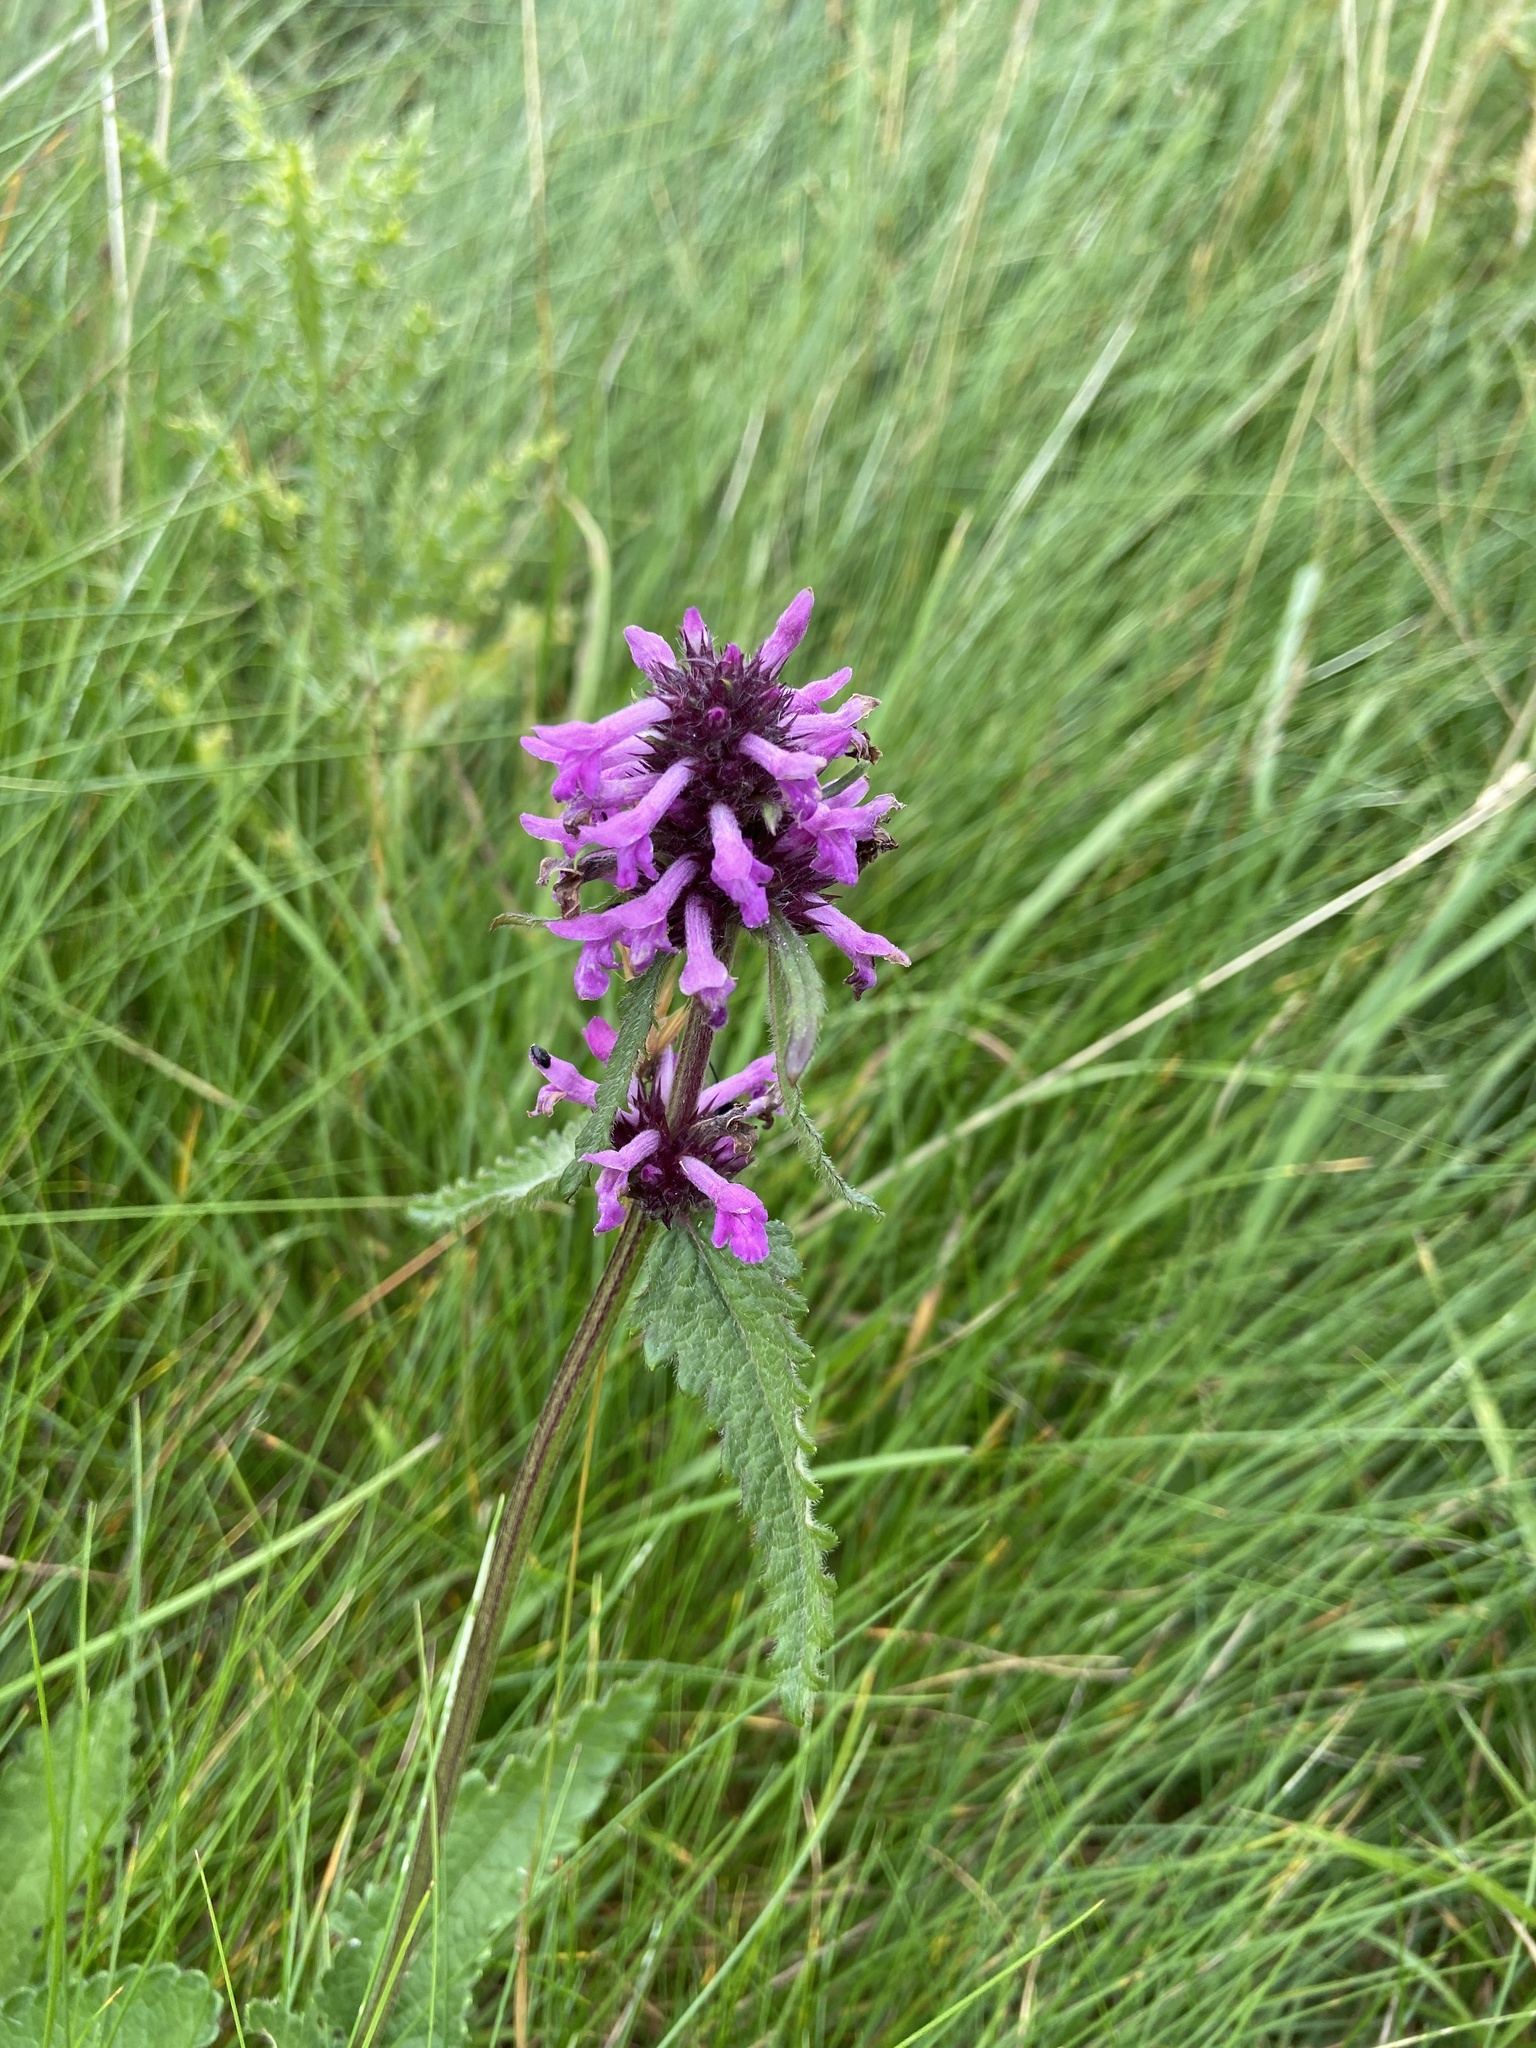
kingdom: Plantae
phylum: Tracheophyta
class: Magnoliopsida
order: Lamiales
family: Lamiaceae
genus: Betonica
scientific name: Betonica officinalis
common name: Bishop's-wort
